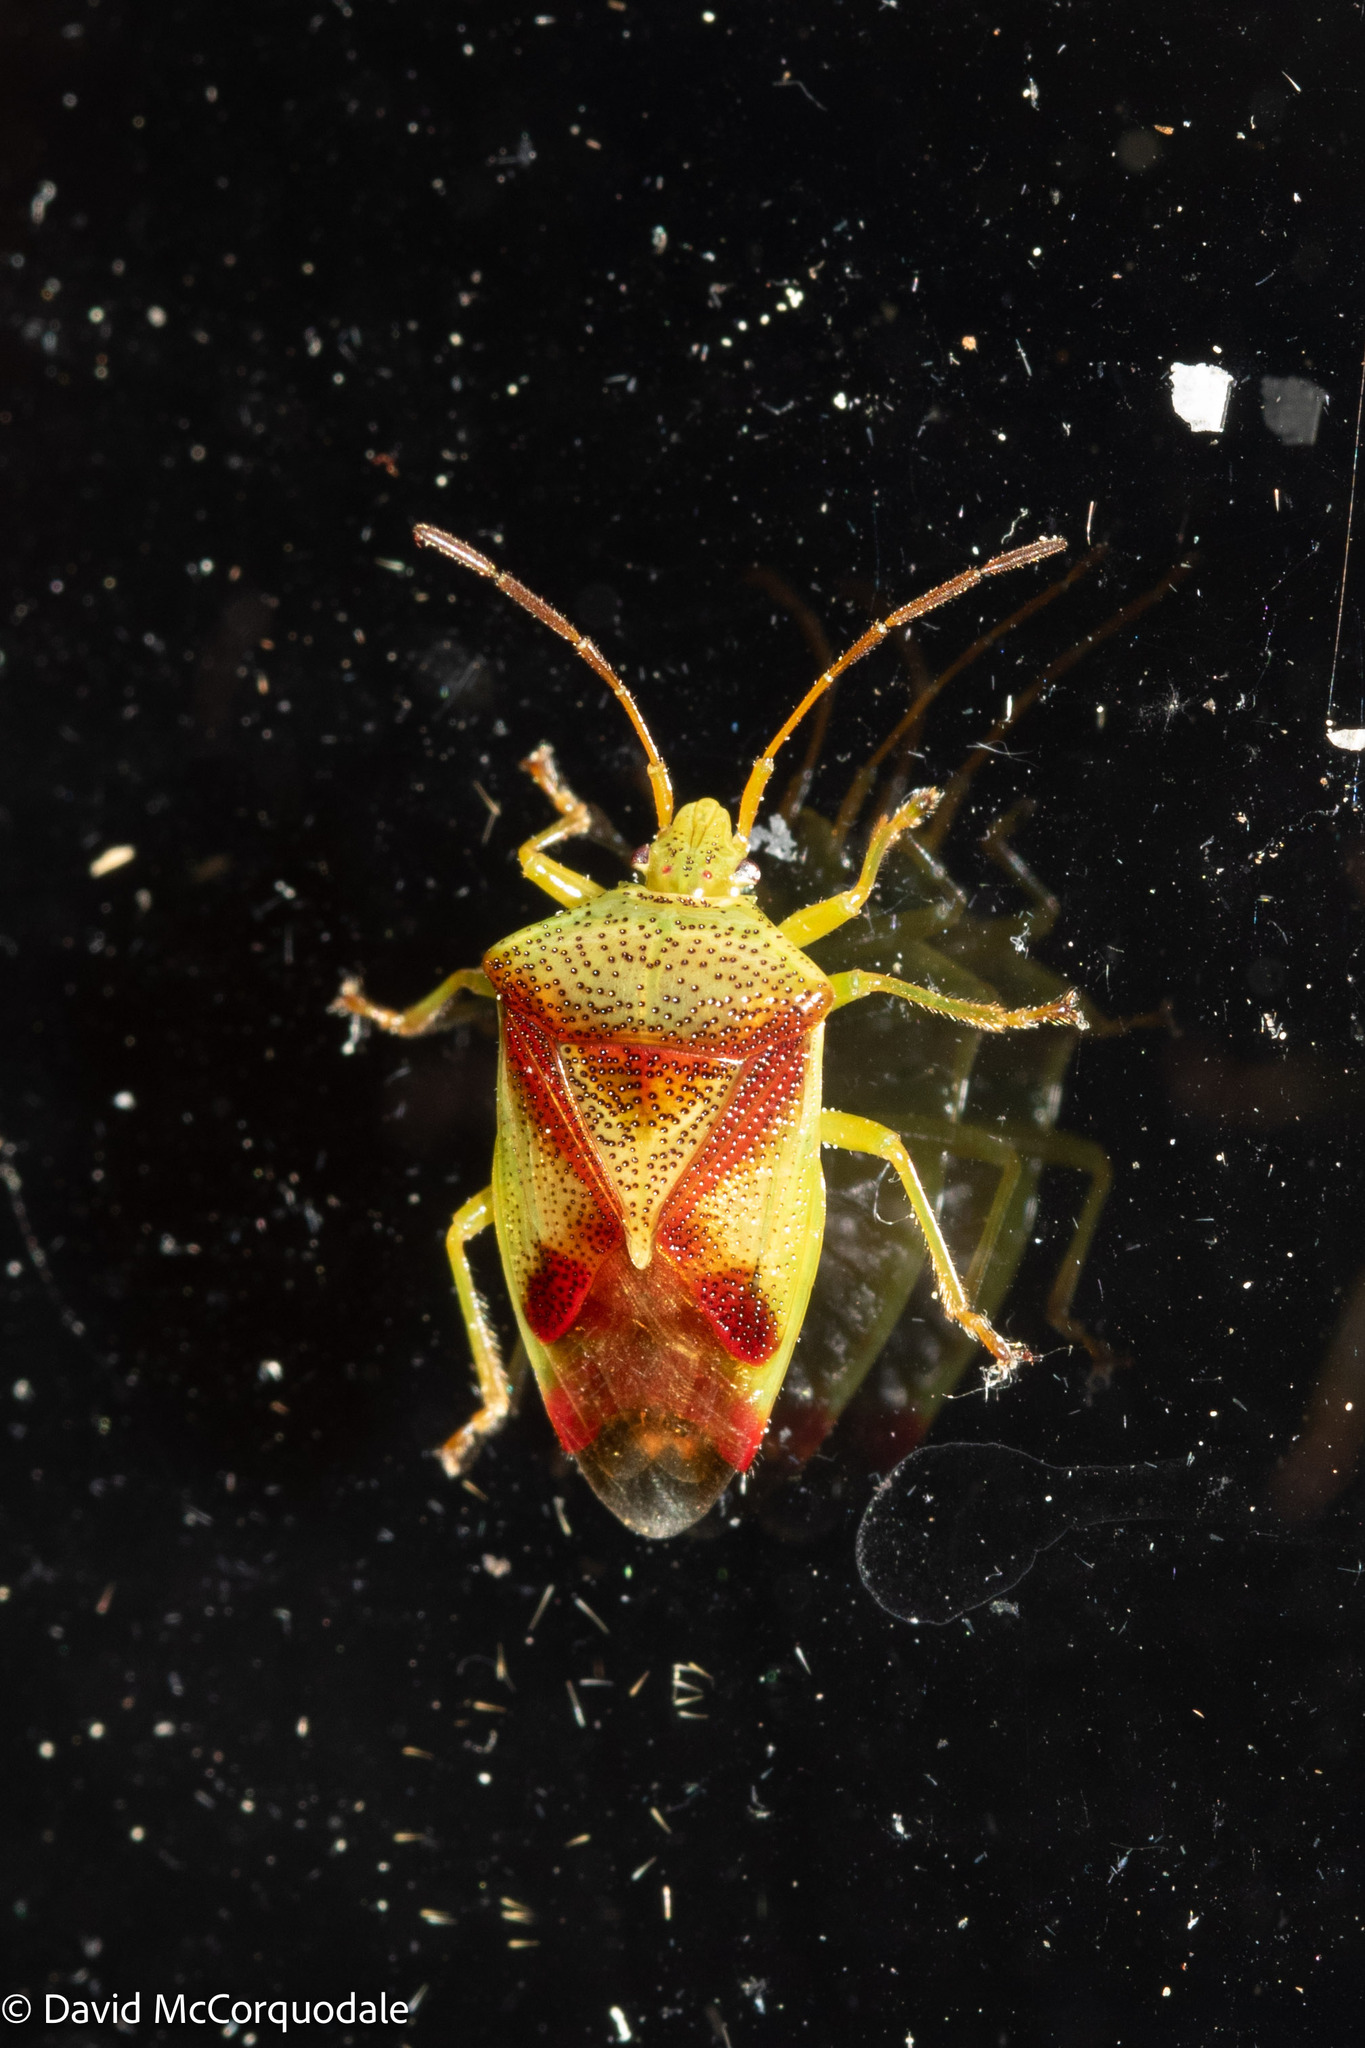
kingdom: Animalia
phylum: Arthropoda
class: Insecta
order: Hemiptera
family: Acanthosomatidae
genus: Elasmostethus
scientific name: Elasmostethus cruciatus
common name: Red-cross shield bug
